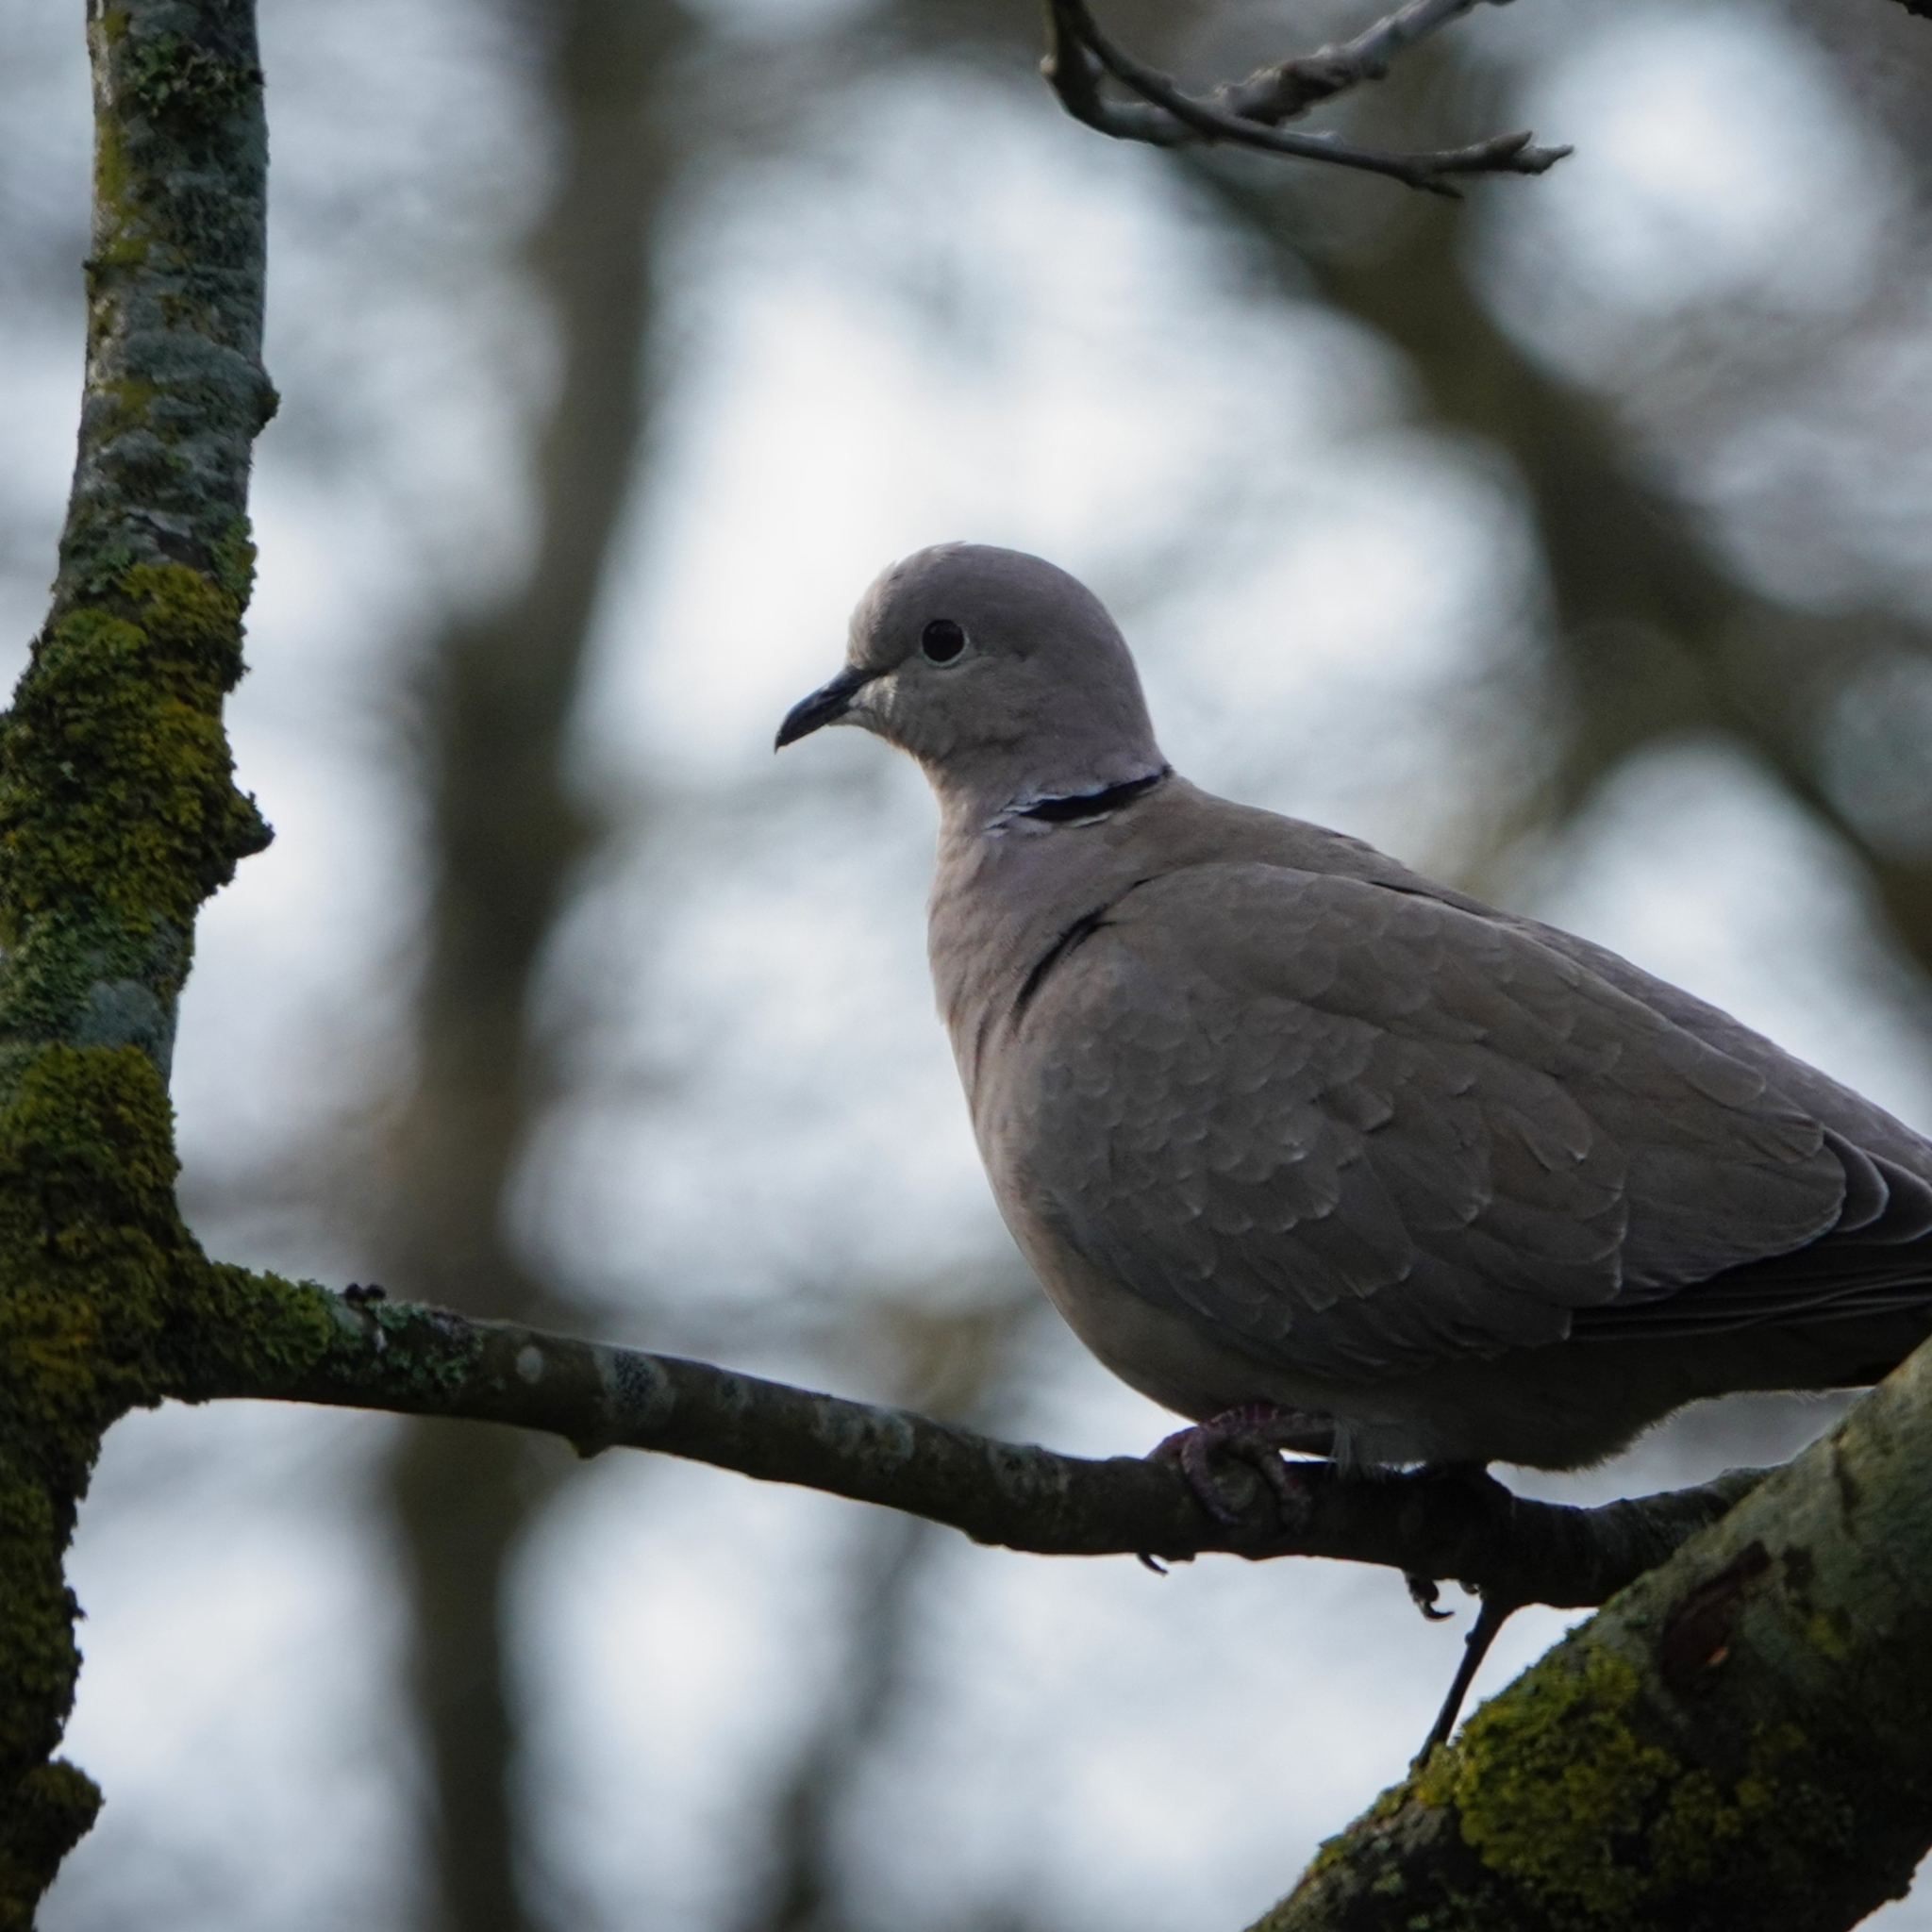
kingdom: Animalia
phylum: Chordata
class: Aves
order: Columbiformes
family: Columbidae
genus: Streptopelia
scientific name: Streptopelia decaocto
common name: Eurasian collared dove
